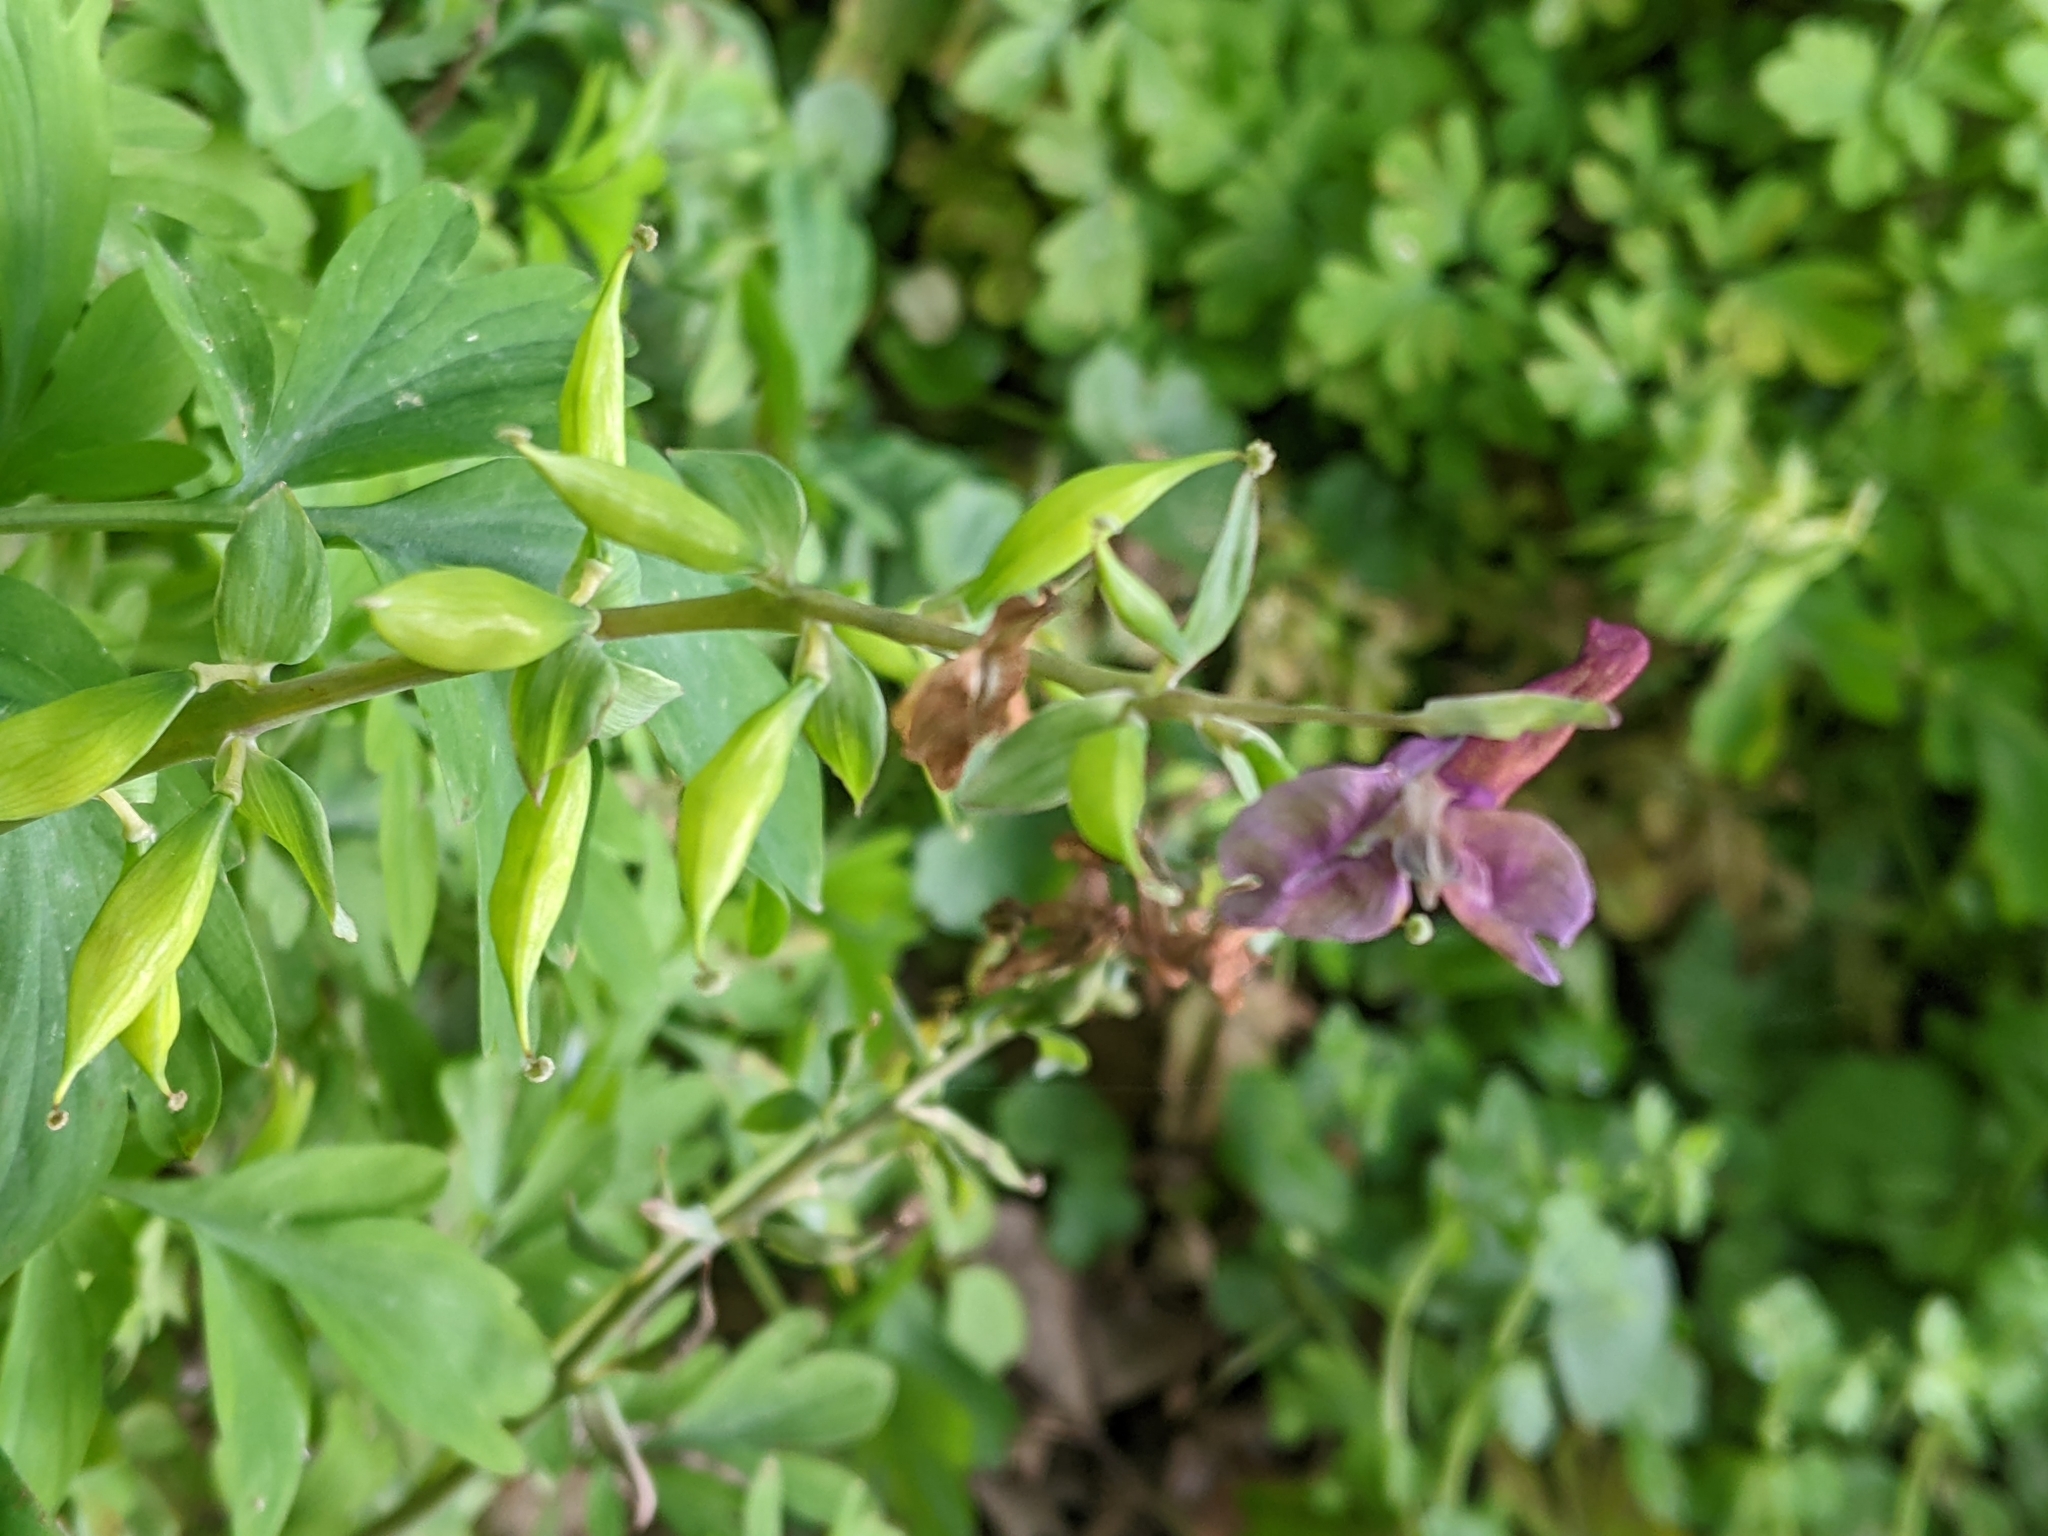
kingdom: Plantae
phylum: Tracheophyta
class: Magnoliopsida
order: Ranunculales
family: Papaveraceae
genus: Corydalis
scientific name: Corydalis cava
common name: Hollowroot
